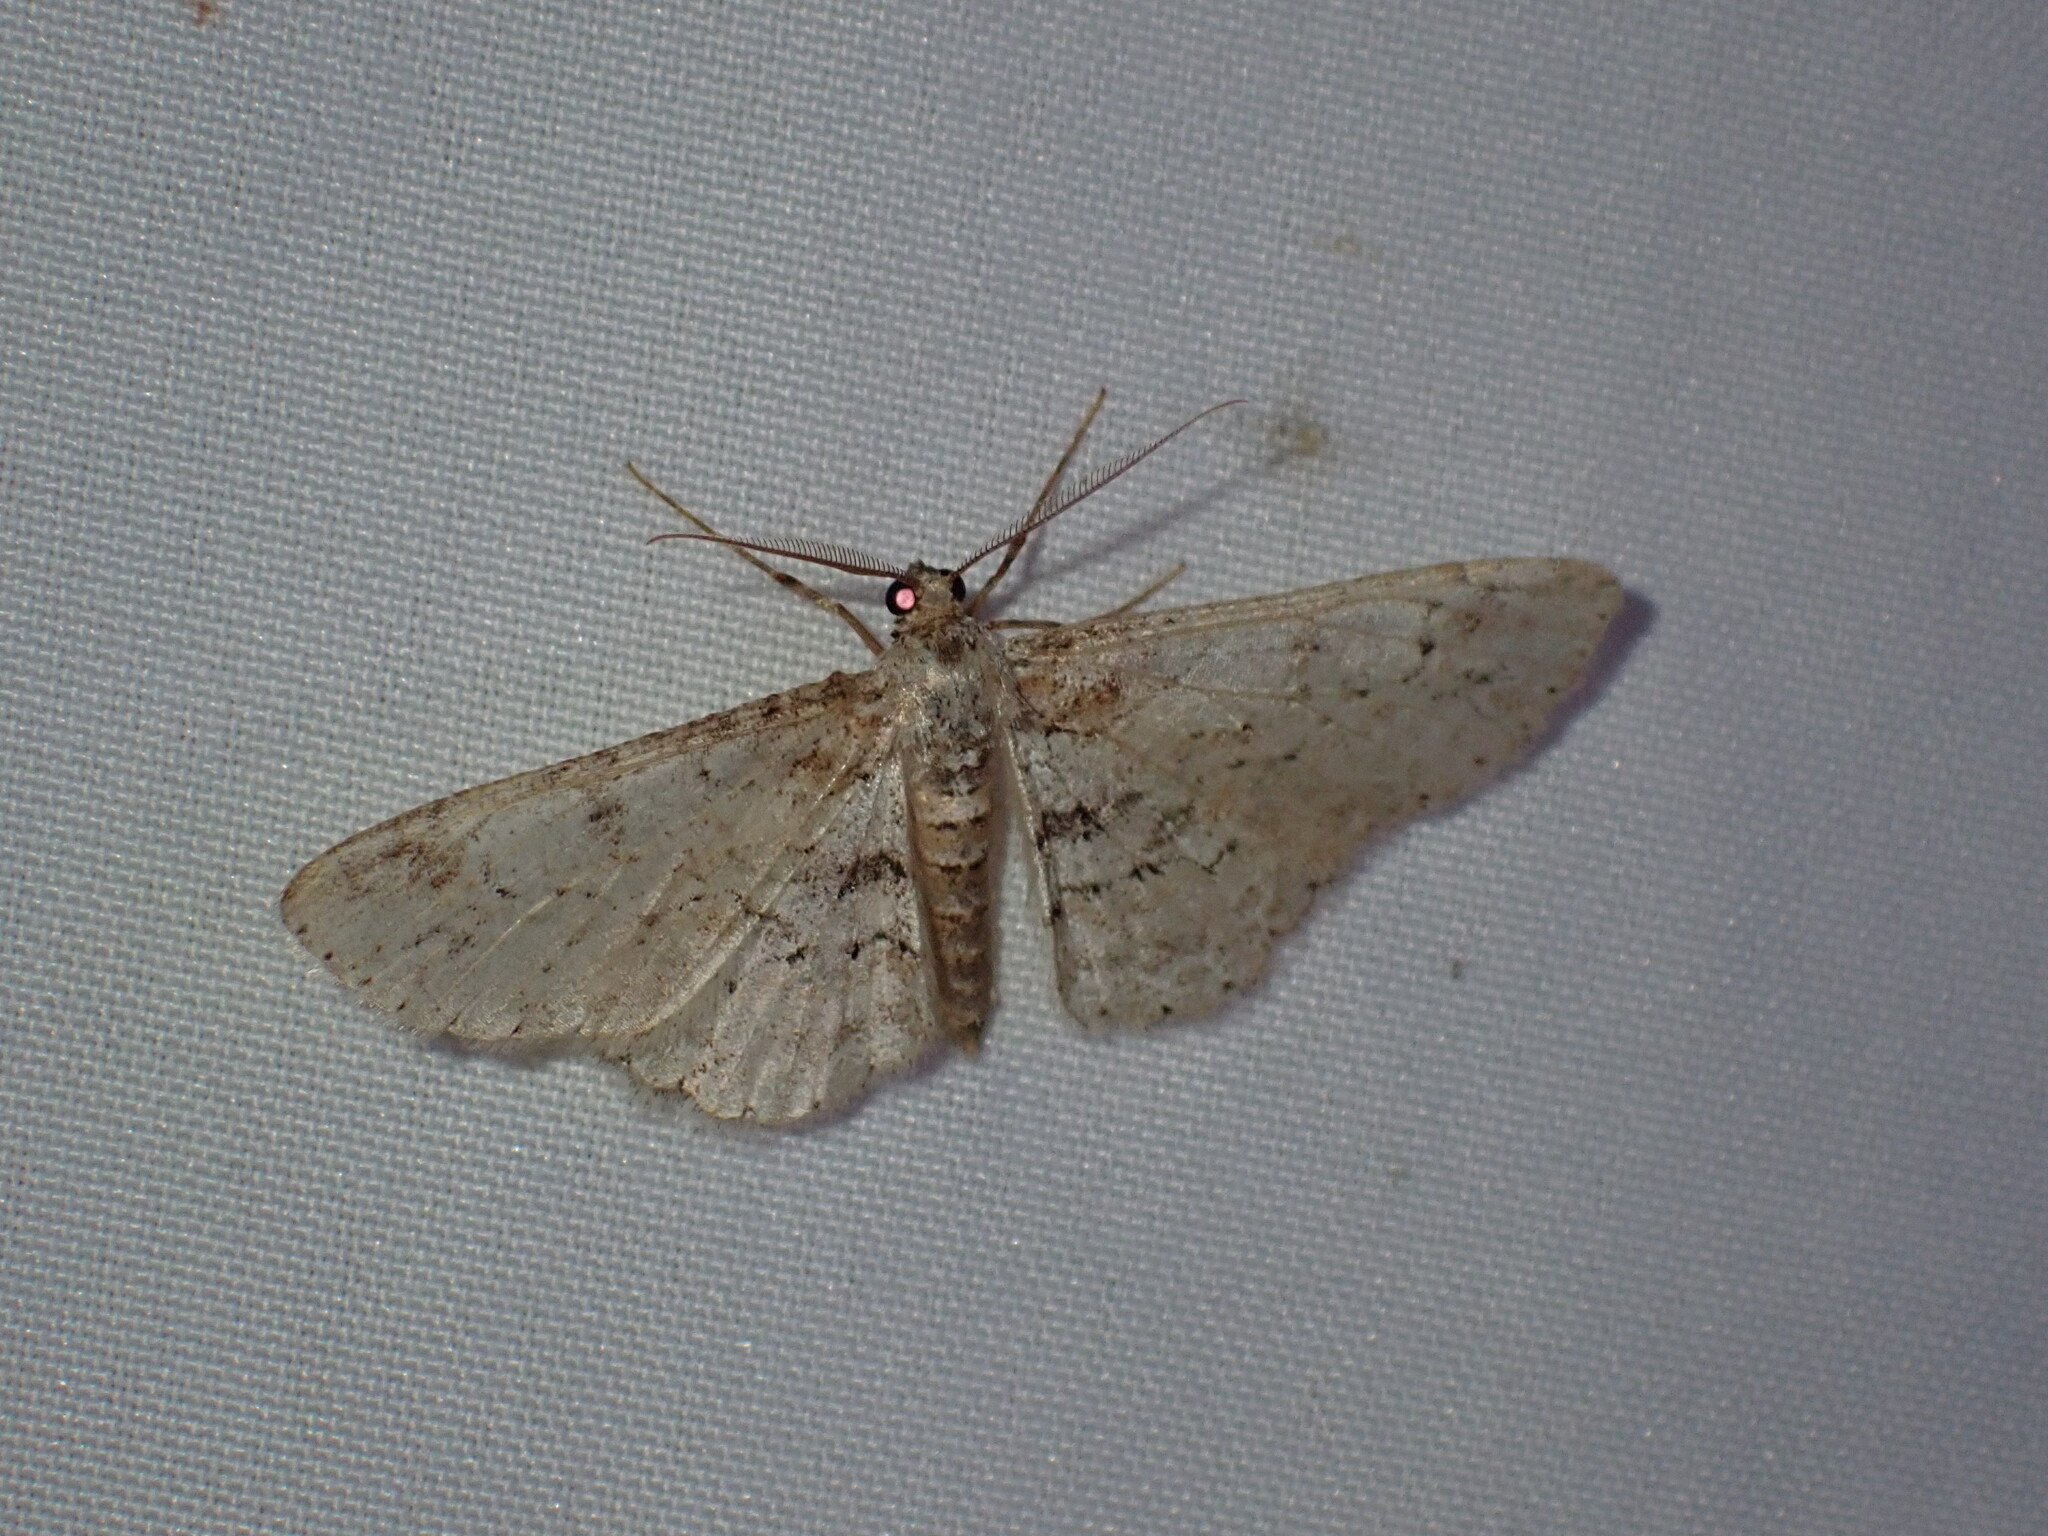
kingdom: Animalia
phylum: Arthropoda
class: Insecta
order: Lepidoptera
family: Geometridae
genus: Iridopsis
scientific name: Iridopsis emasculatum
